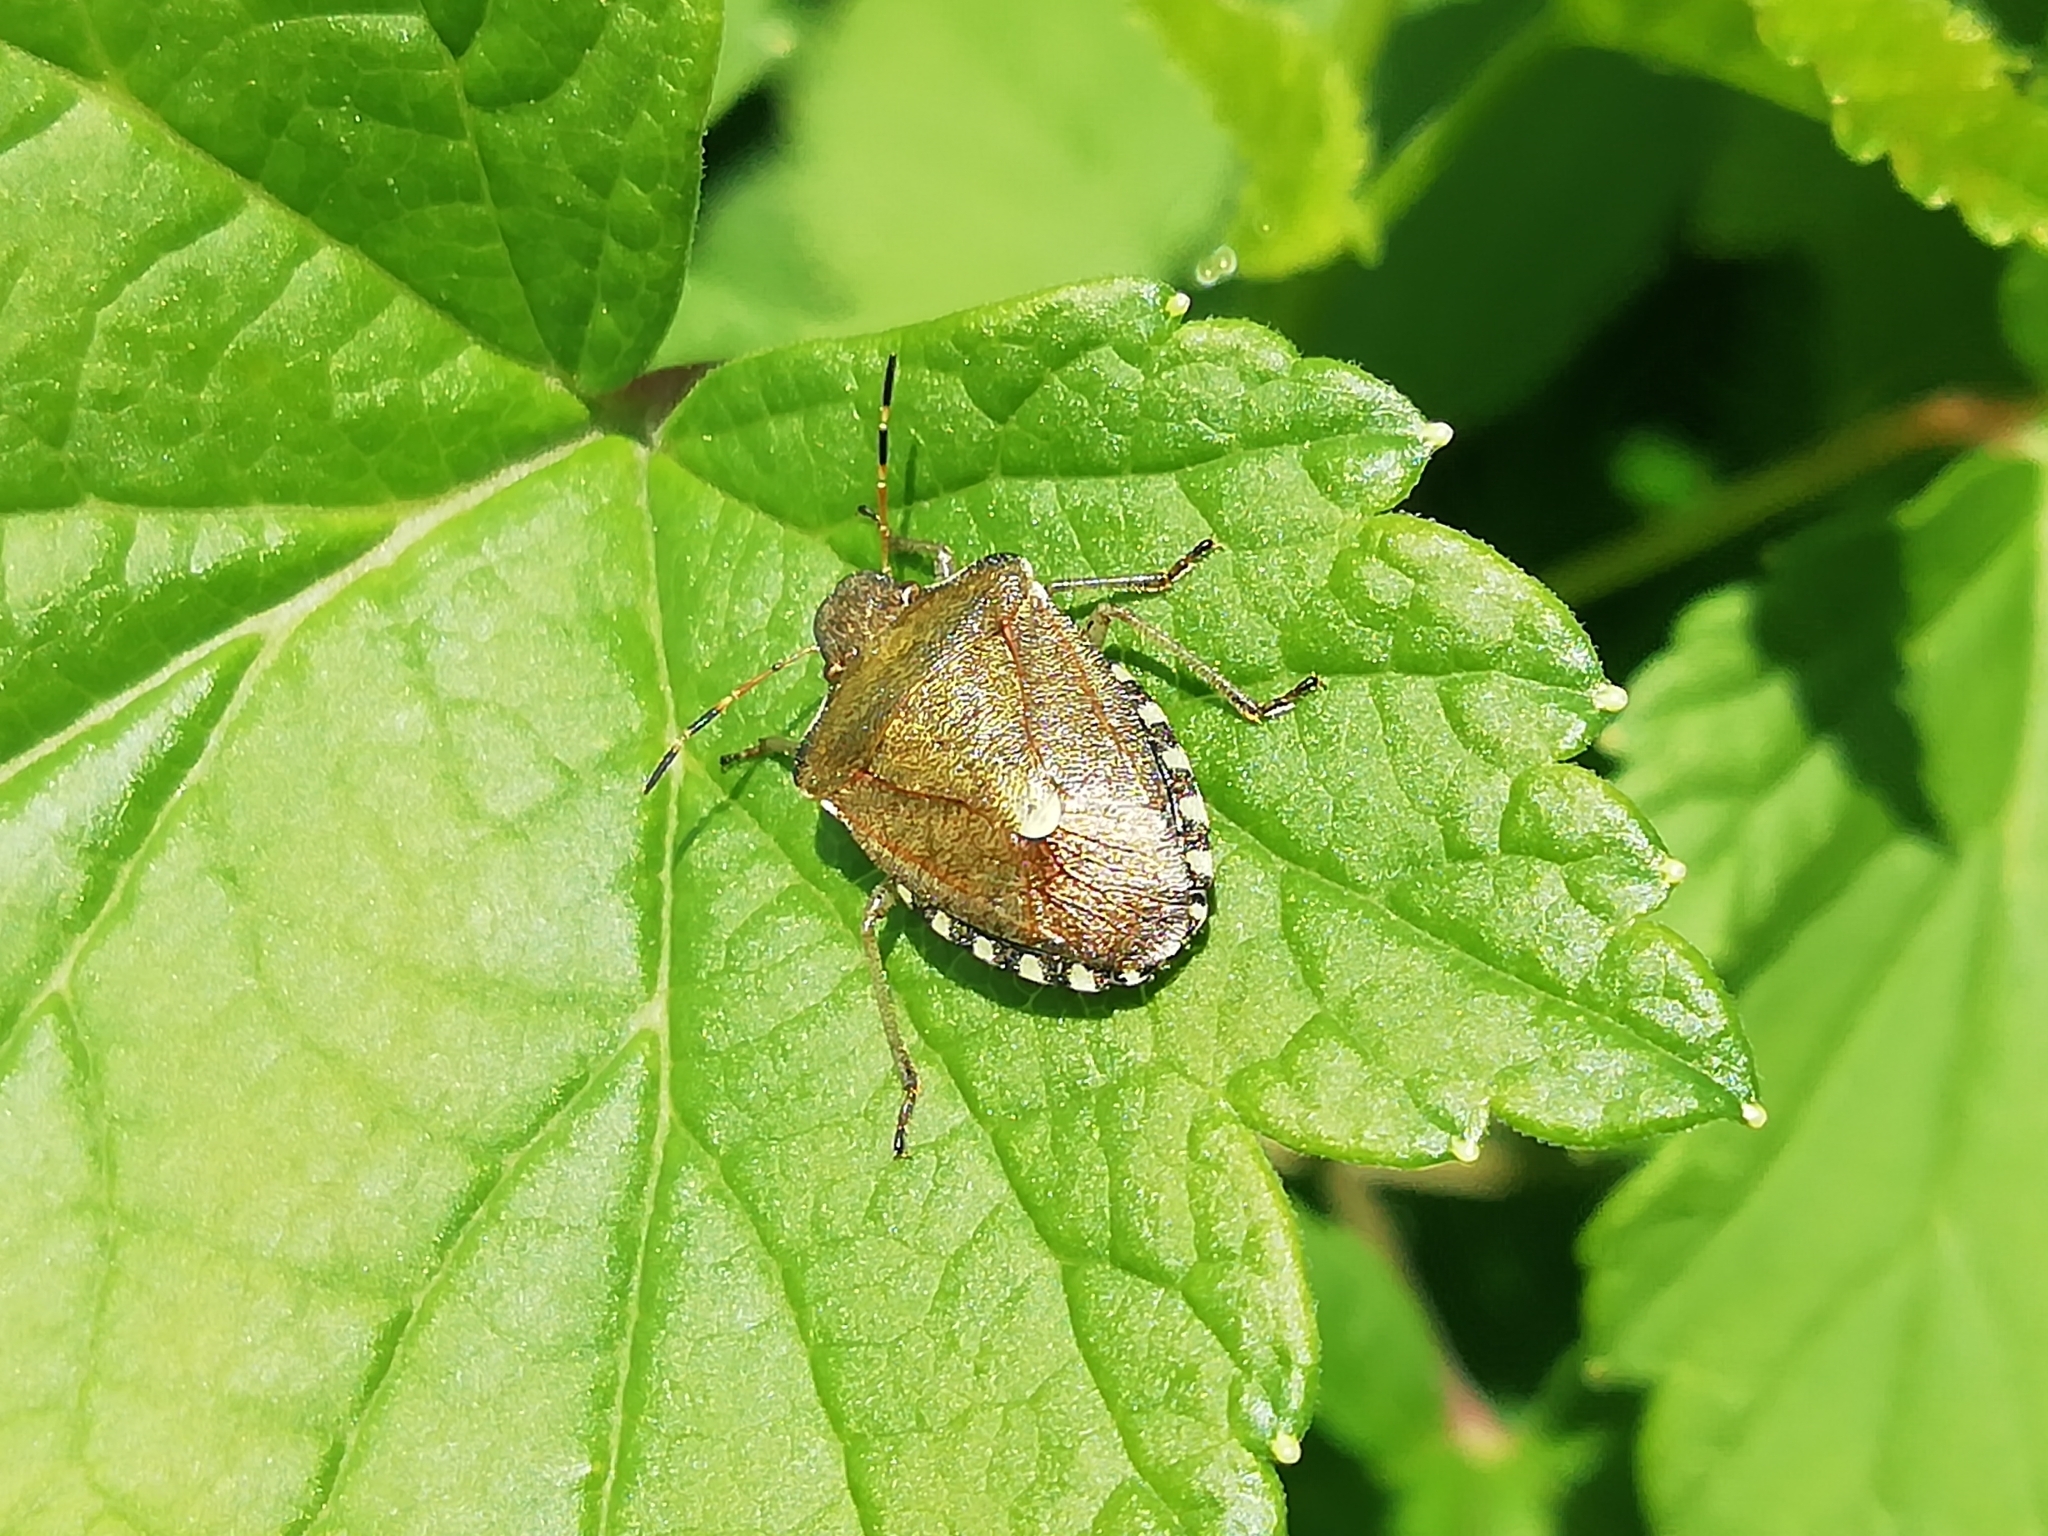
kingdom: Animalia
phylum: Arthropoda
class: Insecta
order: Hemiptera
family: Pentatomidae
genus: Holcostethus
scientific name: Holcostethus strictus
